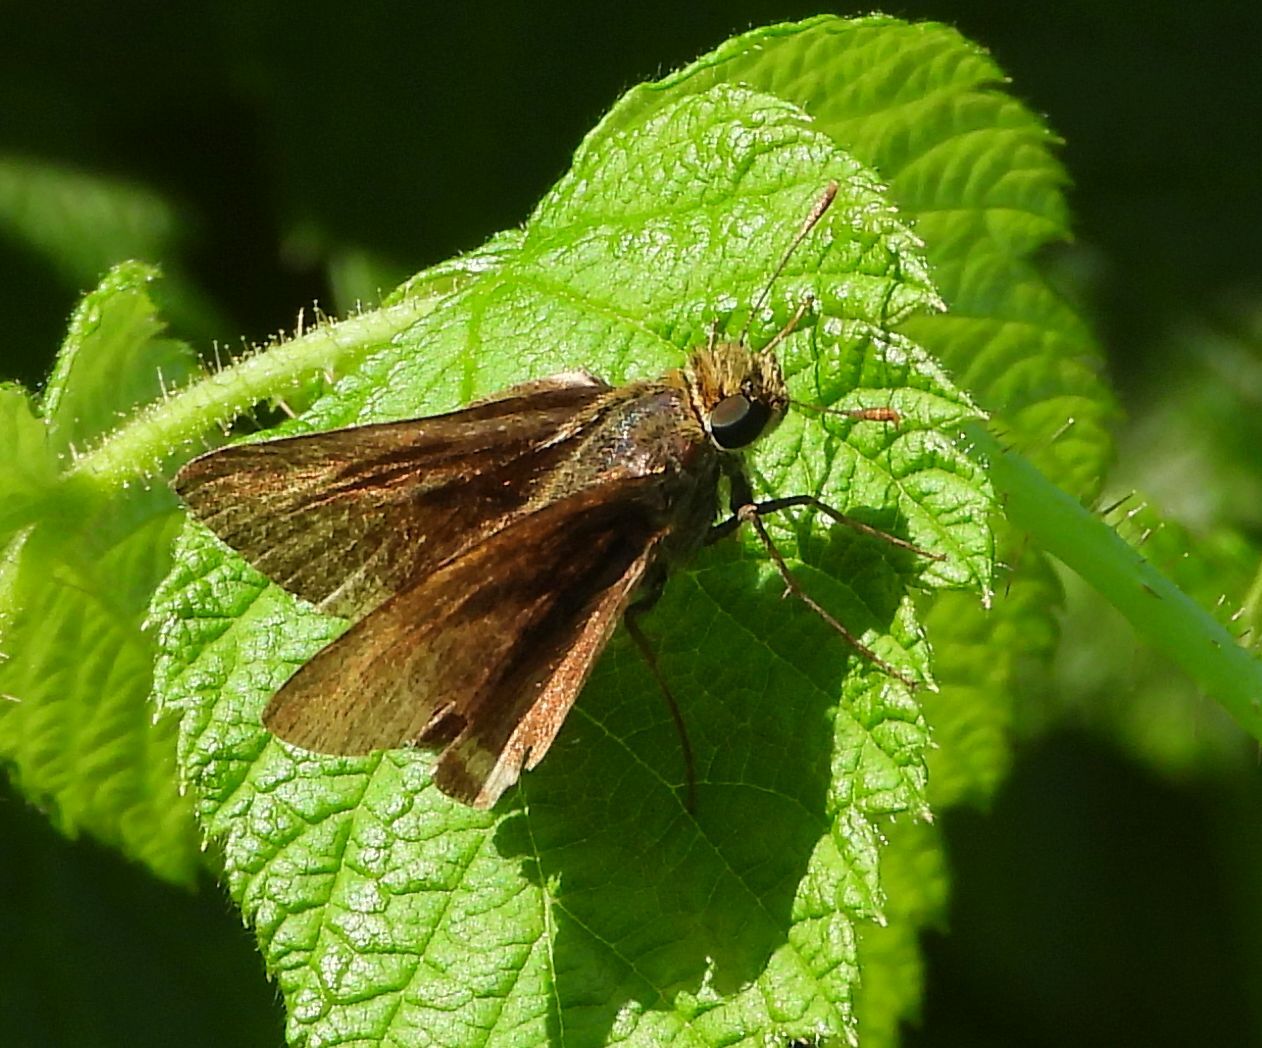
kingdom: Animalia
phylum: Arthropoda
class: Insecta
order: Lepidoptera
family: Hesperiidae
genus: Euphyes
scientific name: Euphyes vestris
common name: Dun skipper
